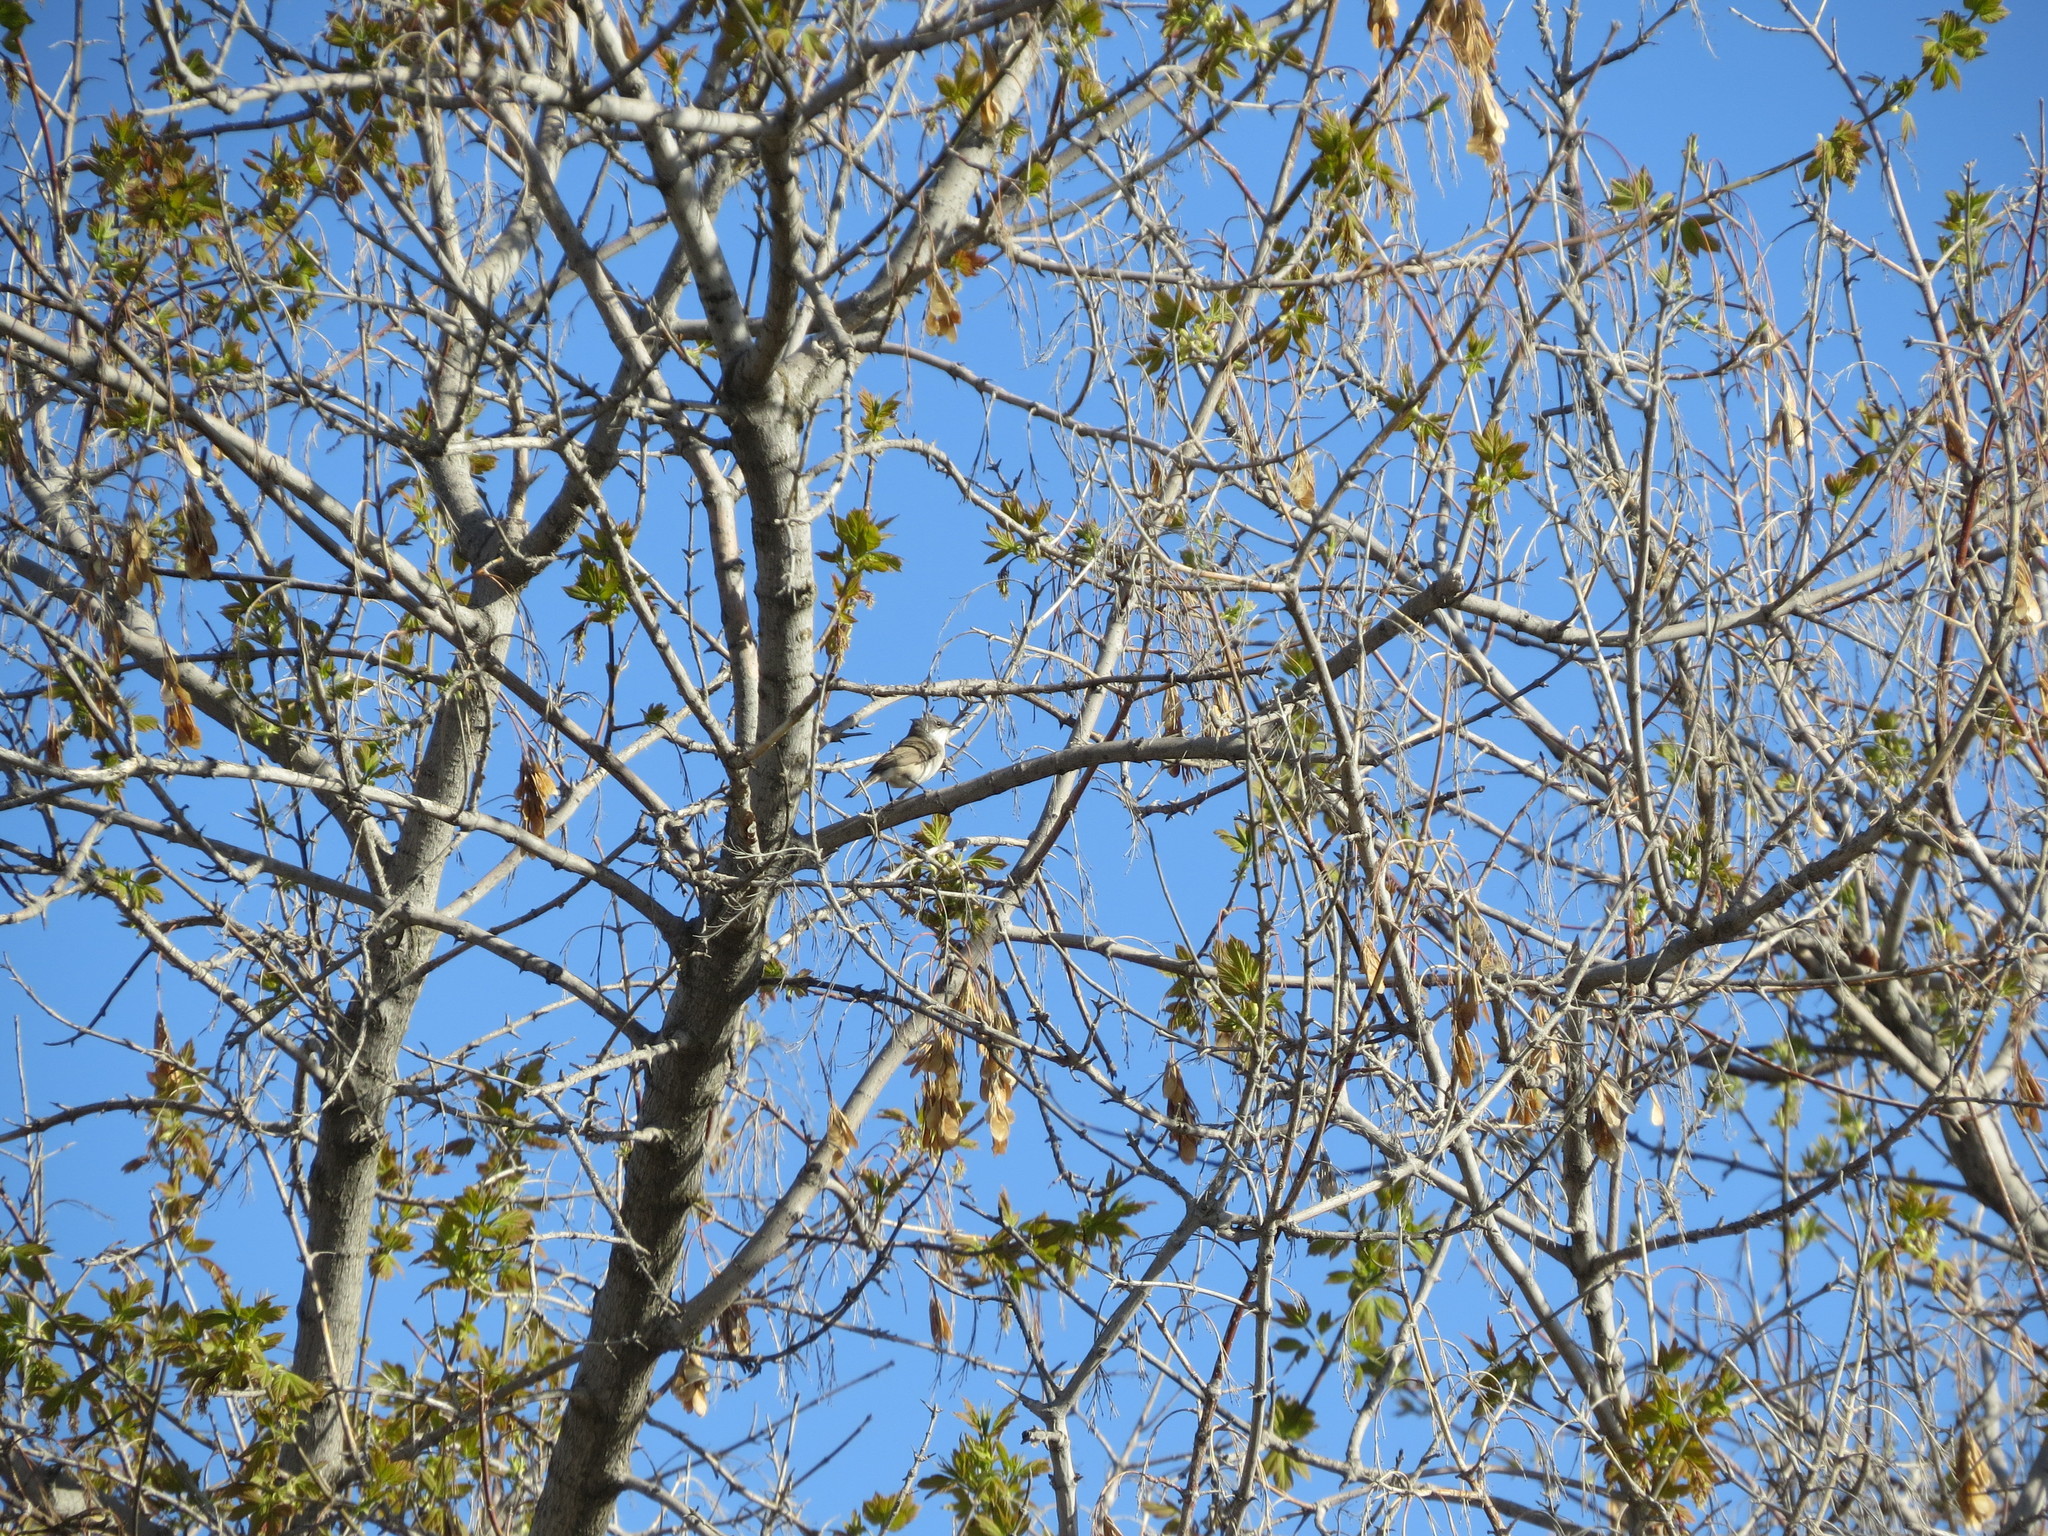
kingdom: Animalia
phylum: Chordata
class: Aves
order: Passeriformes
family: Sylviidae
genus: Sylvia
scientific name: Sylvia curruca
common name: Lesser whitethroat
